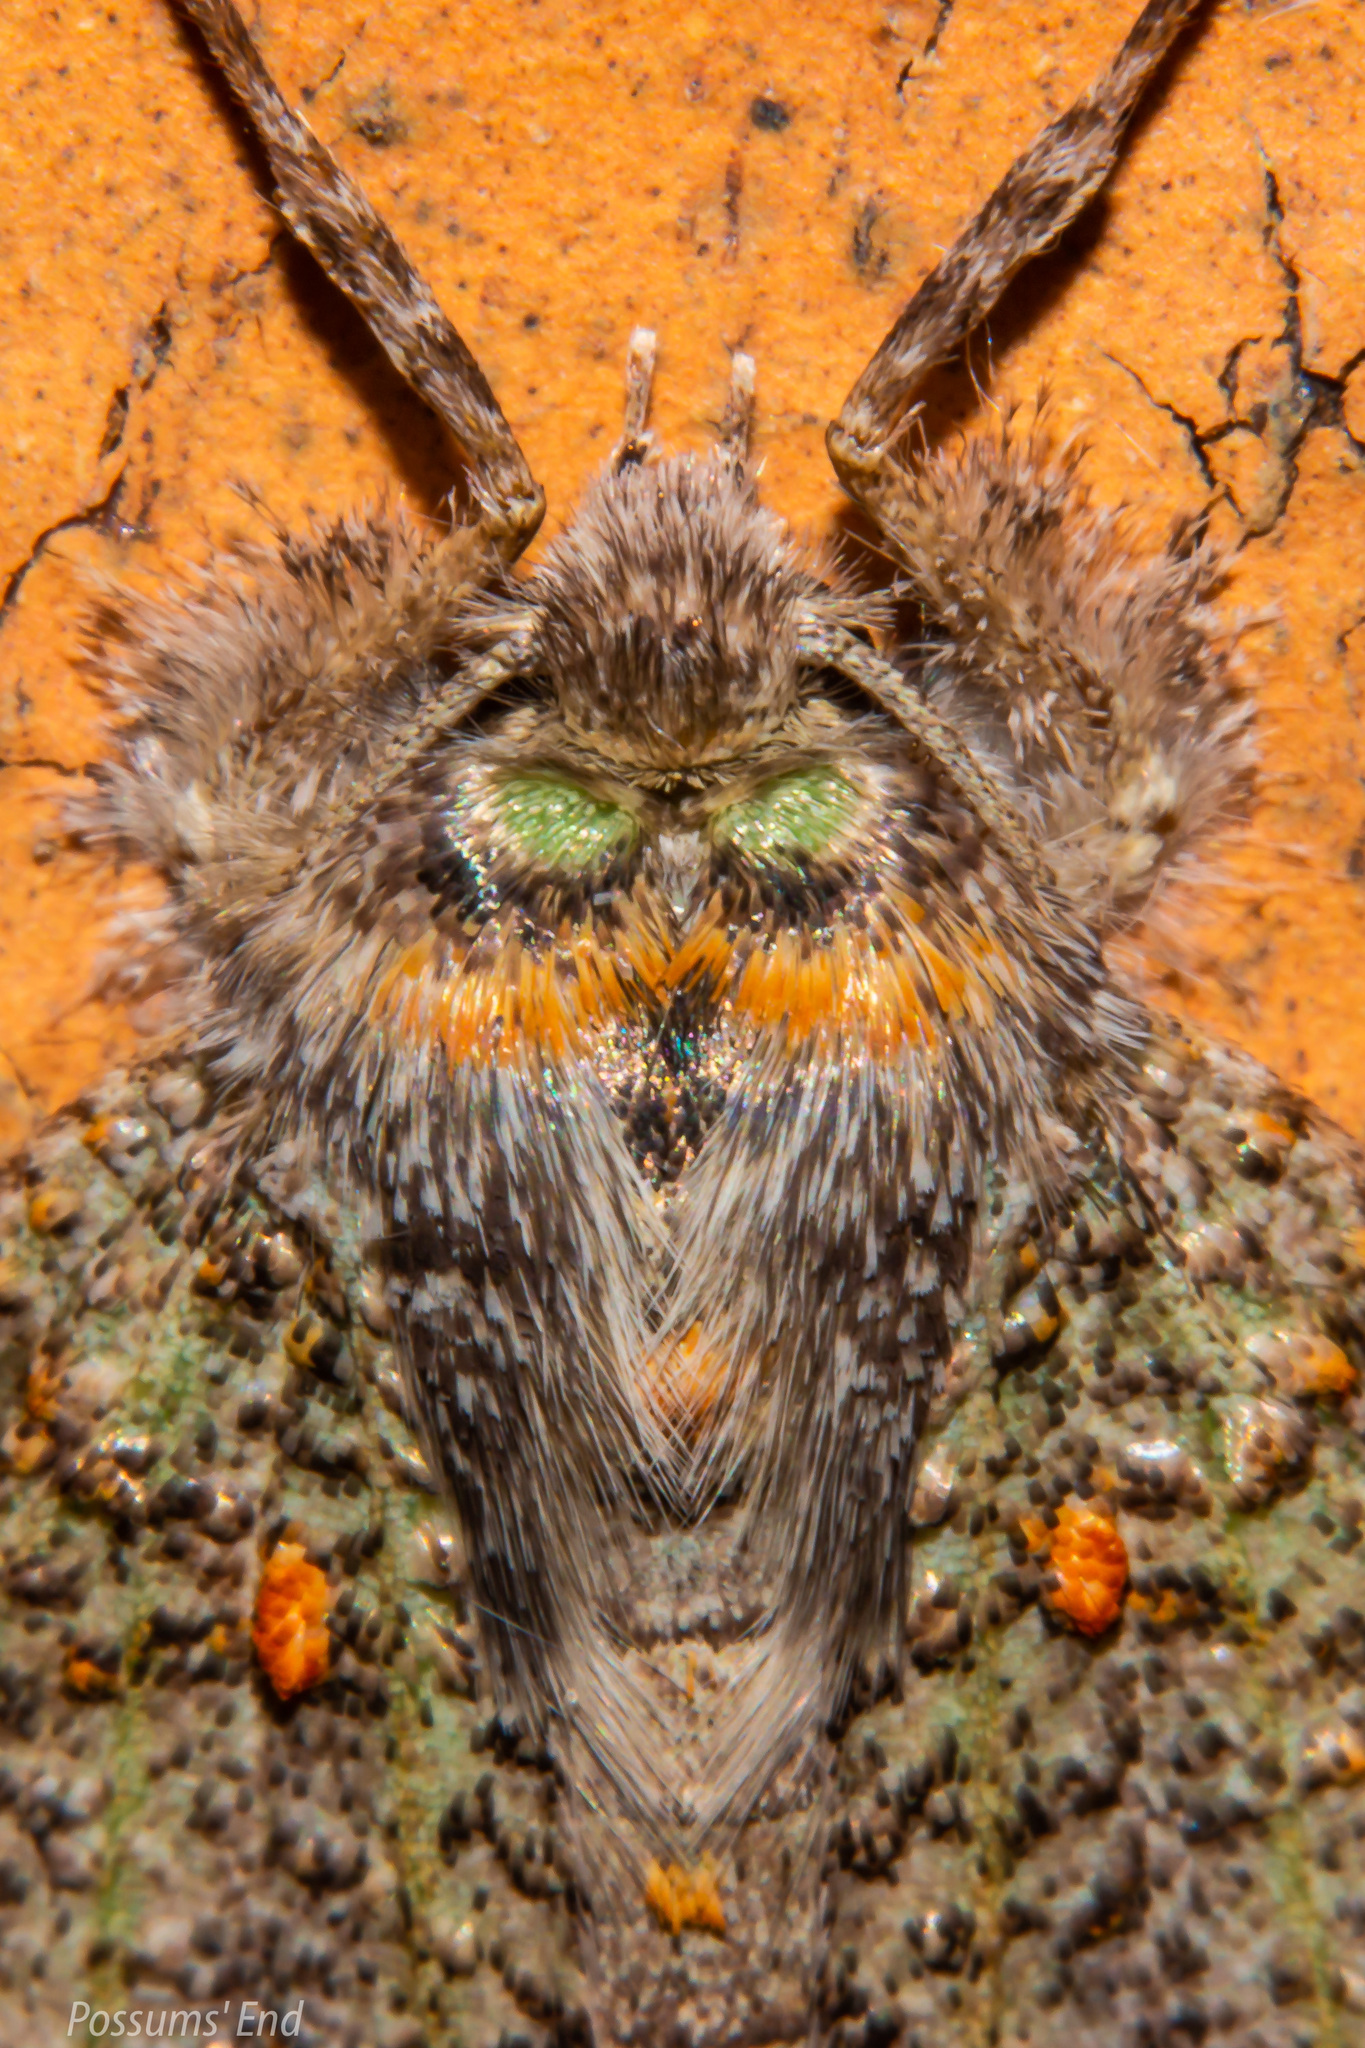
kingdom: Animalia
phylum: Arthropoda
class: Insecta
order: Lepidoptera
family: Geometridae
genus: Declana
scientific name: Declana floccosa
